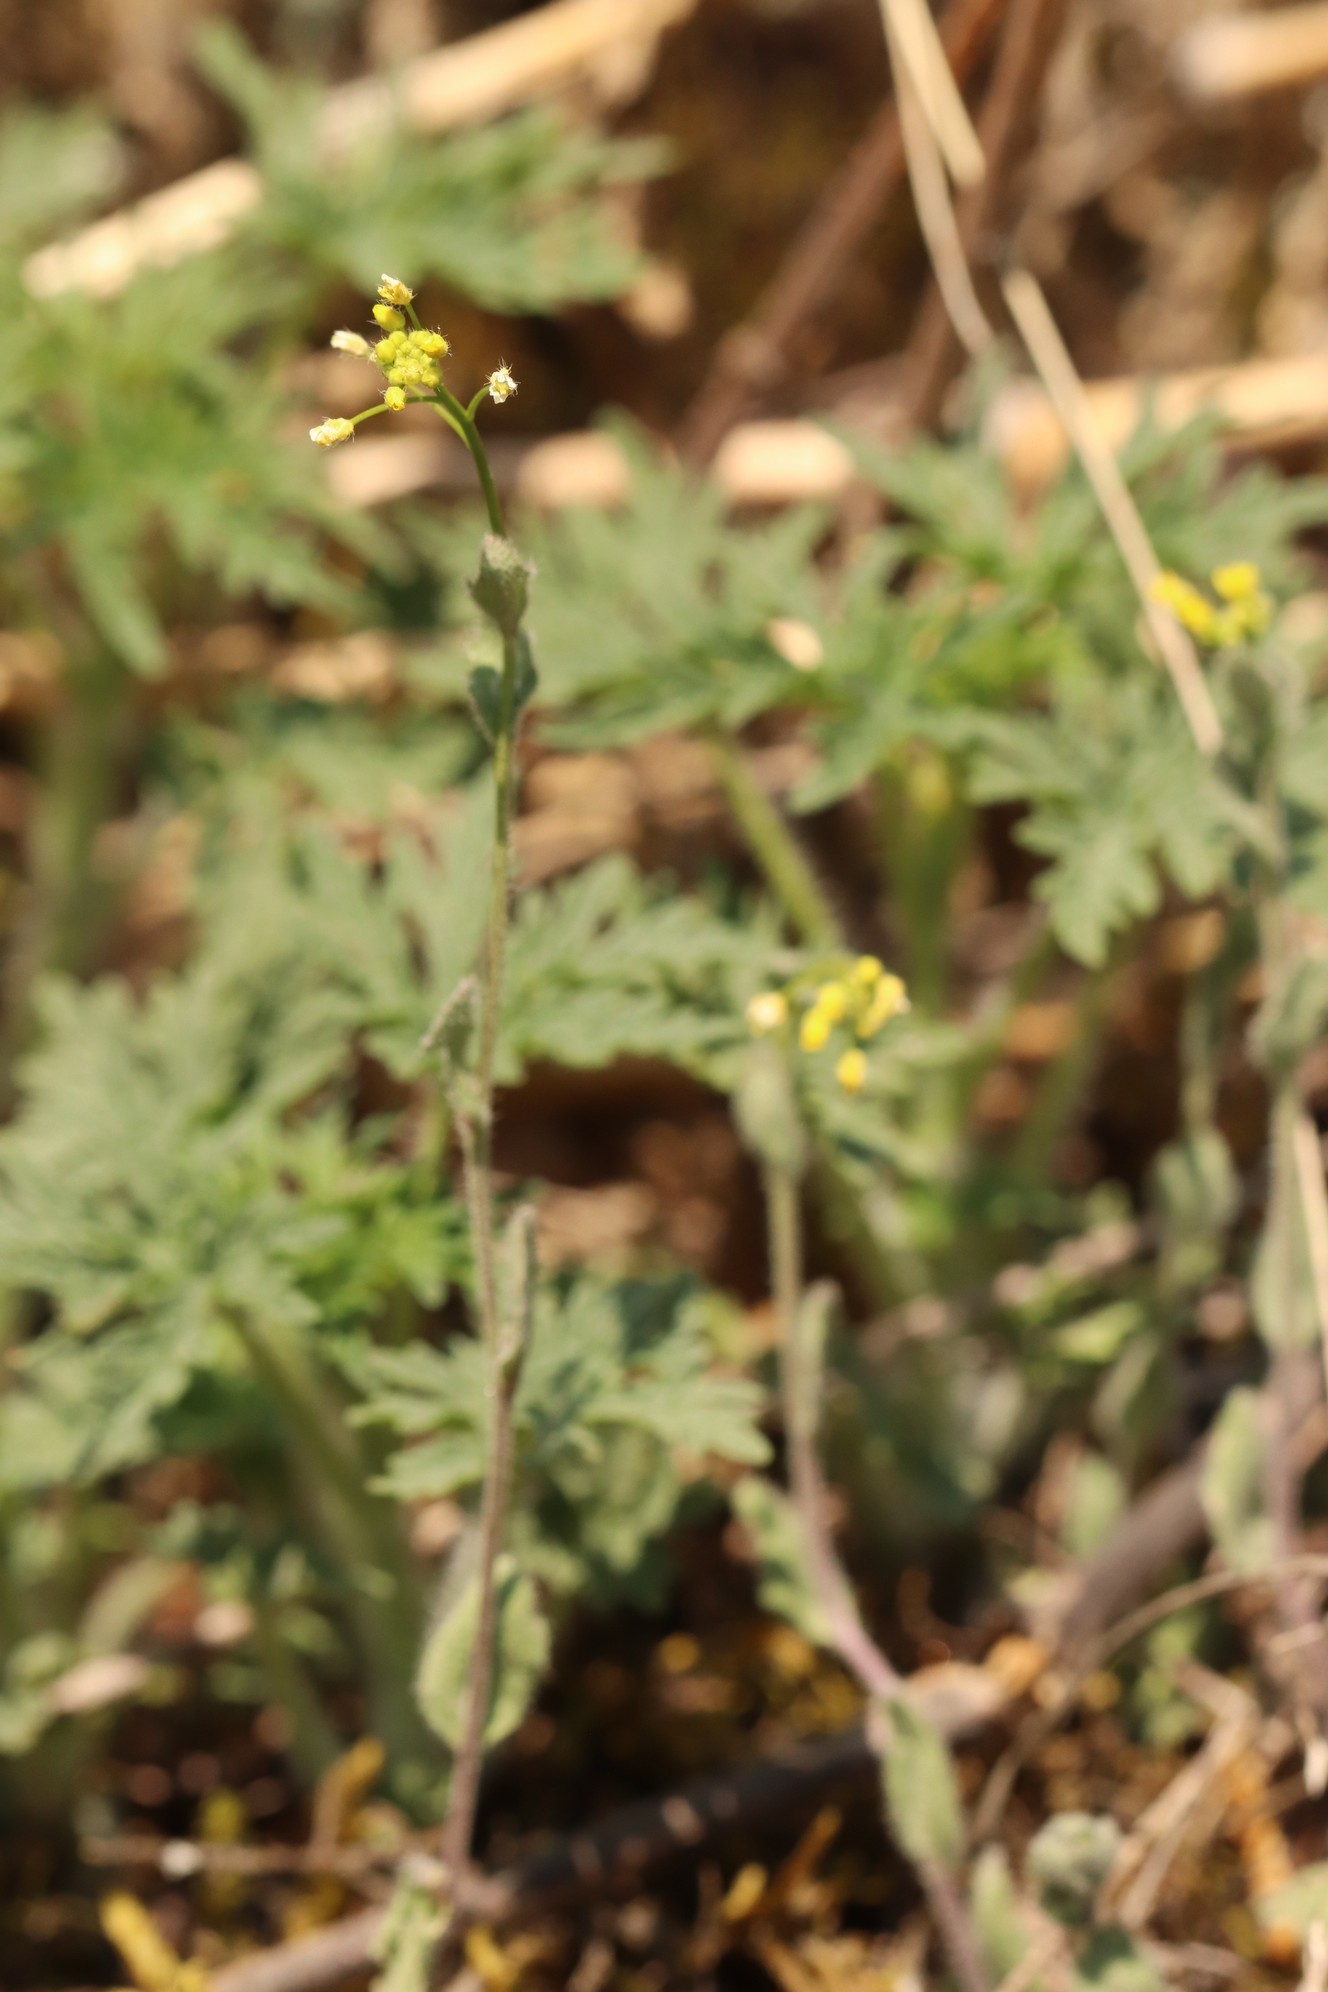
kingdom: Plantae
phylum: Tracheophyta
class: Magnoliopsida
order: Lamiales
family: Lamiaceae
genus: Leonurus
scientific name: Leonurus tataricus
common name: Chinese motherwort
